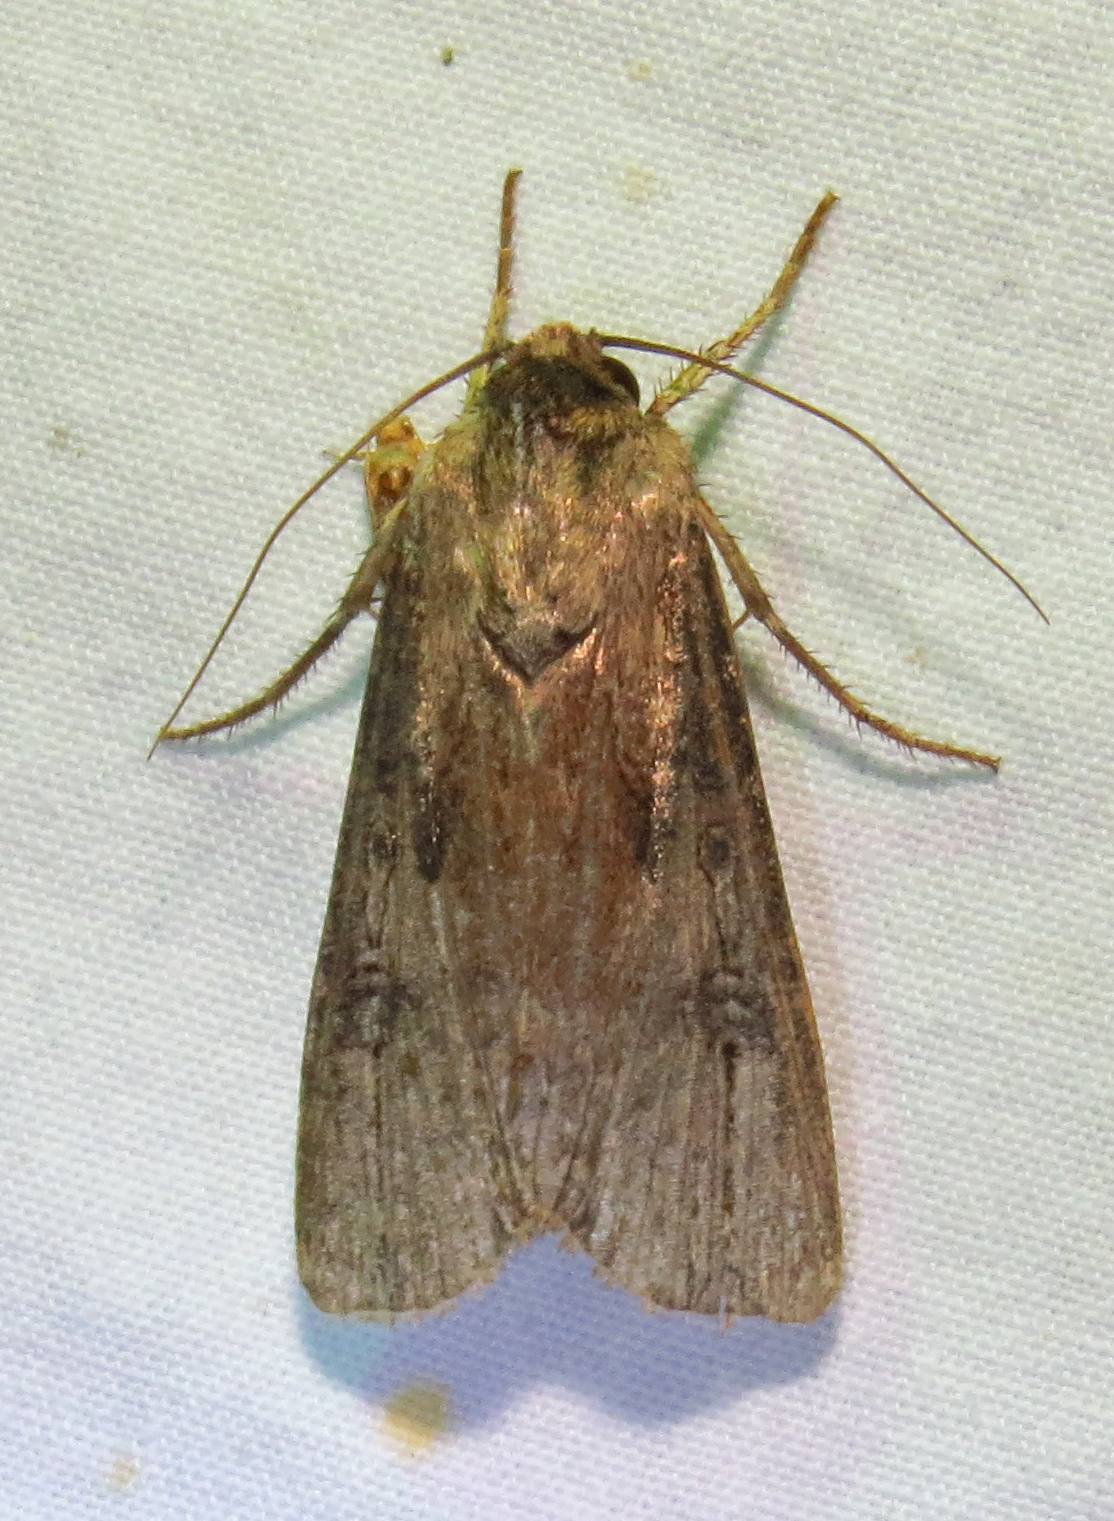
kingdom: Animalia
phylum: Arthropoda
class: Insecta
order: Lepidoptera
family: Noctuidae
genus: Agrotis
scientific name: Agrotis ipsilon
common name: Dark sword-grass
